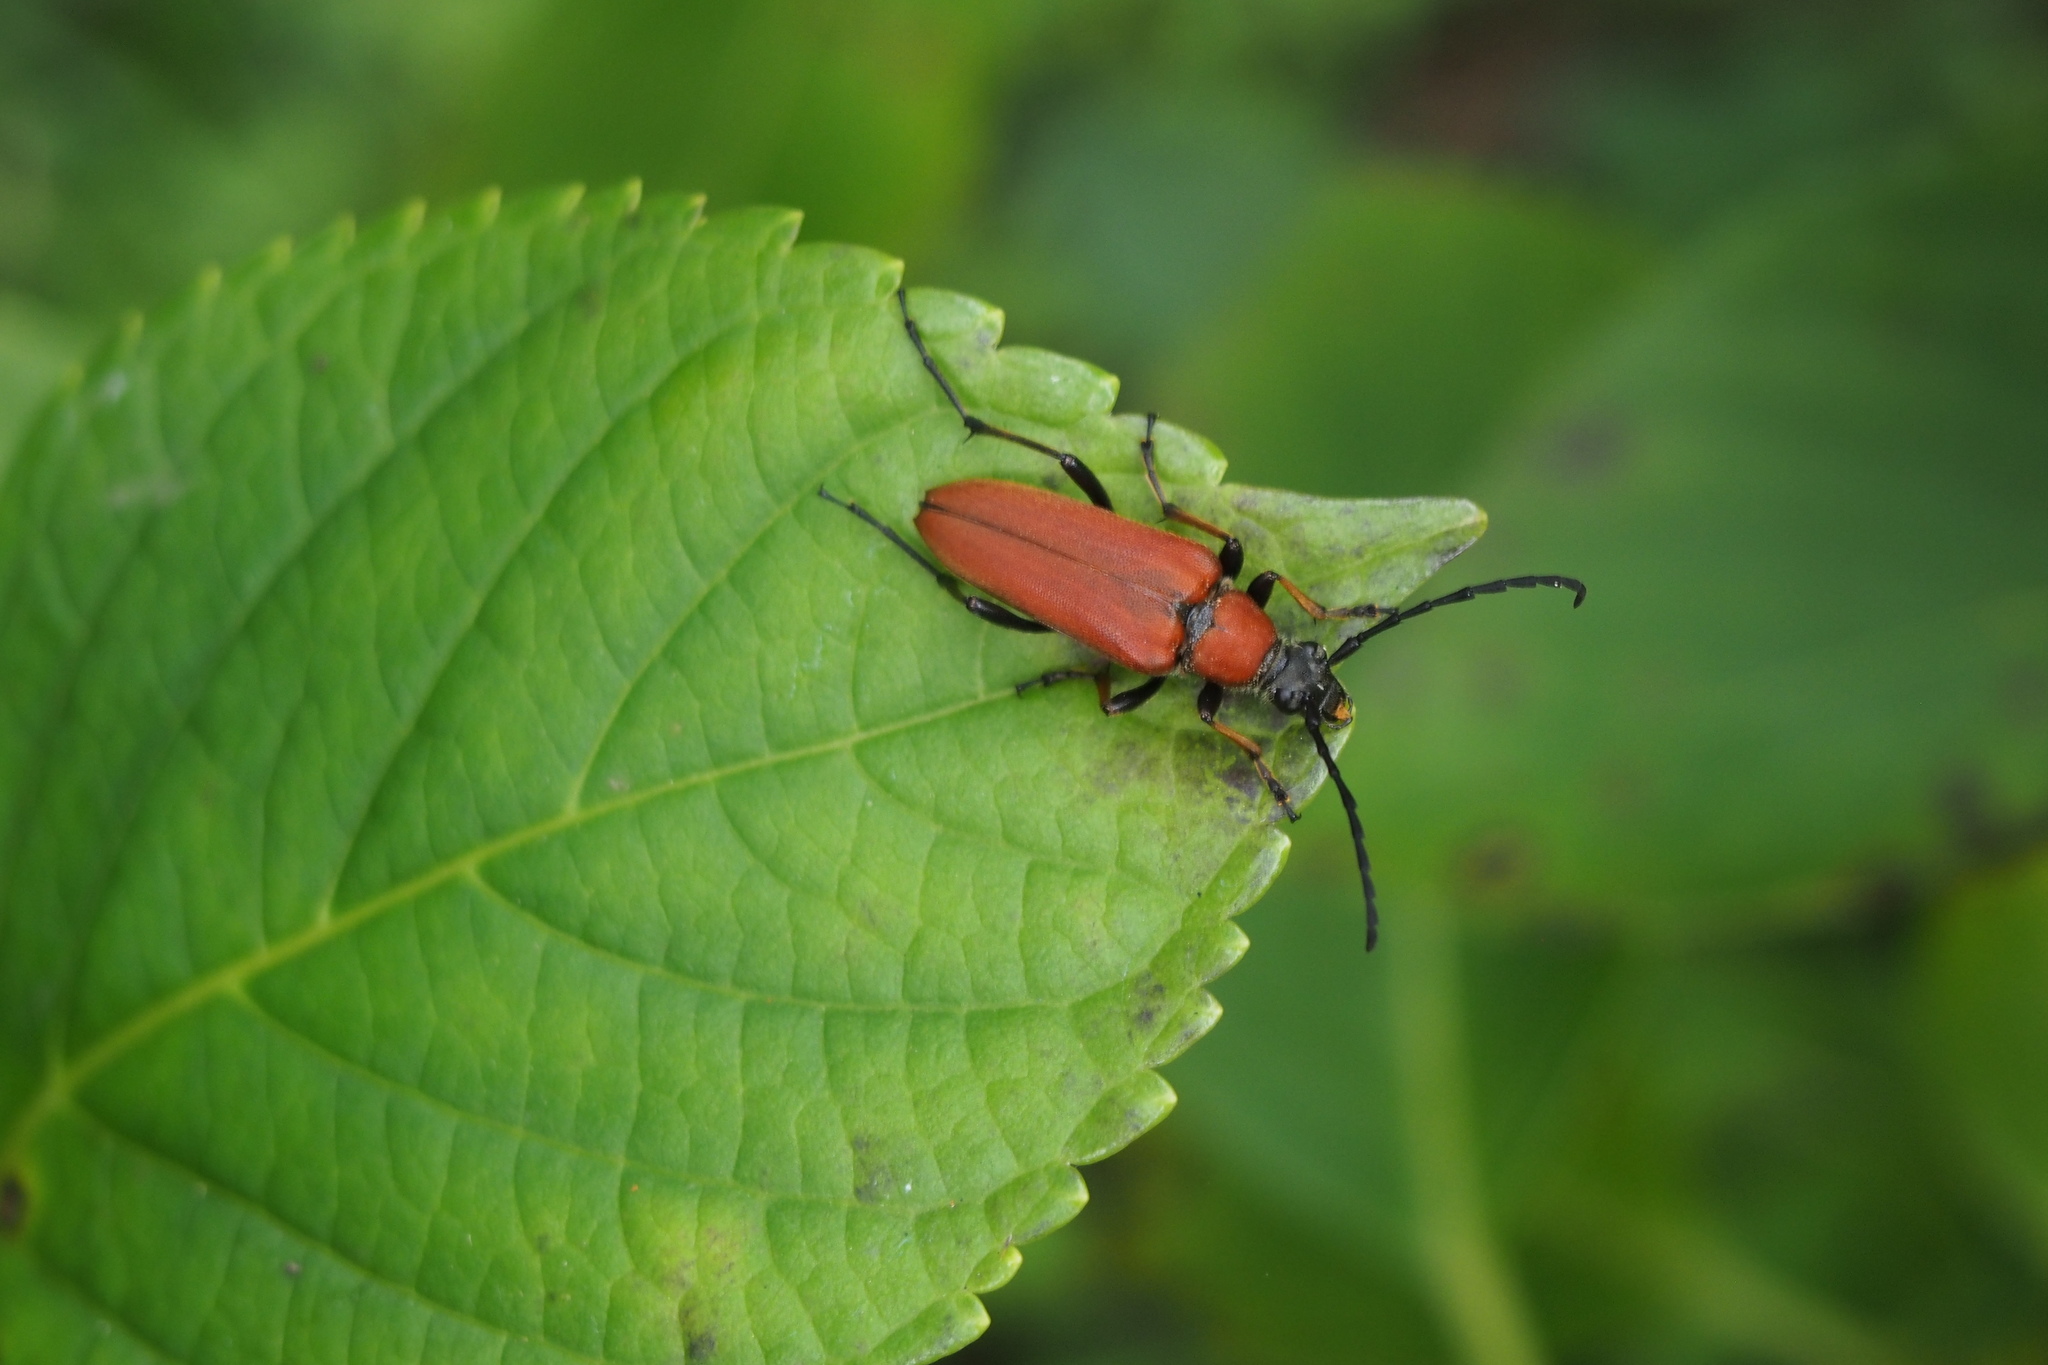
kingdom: Animalia
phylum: Arthropoda
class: Insecta
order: Coleoptera
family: Cerambycidae
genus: Stictoleptura
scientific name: Stictoleptura dichroa
